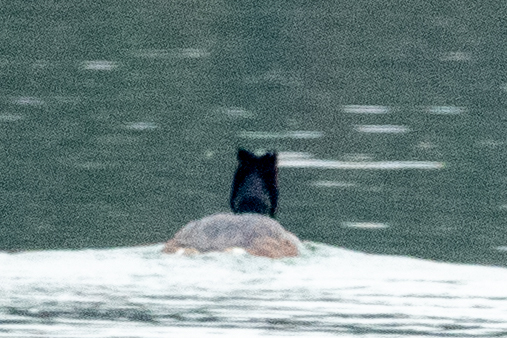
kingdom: Animalia
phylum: Chordata
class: Aves
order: Podicipediformes
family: Podicipedidae
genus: Podiceps
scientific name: Podiceps cristatus
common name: Great crested grebe
